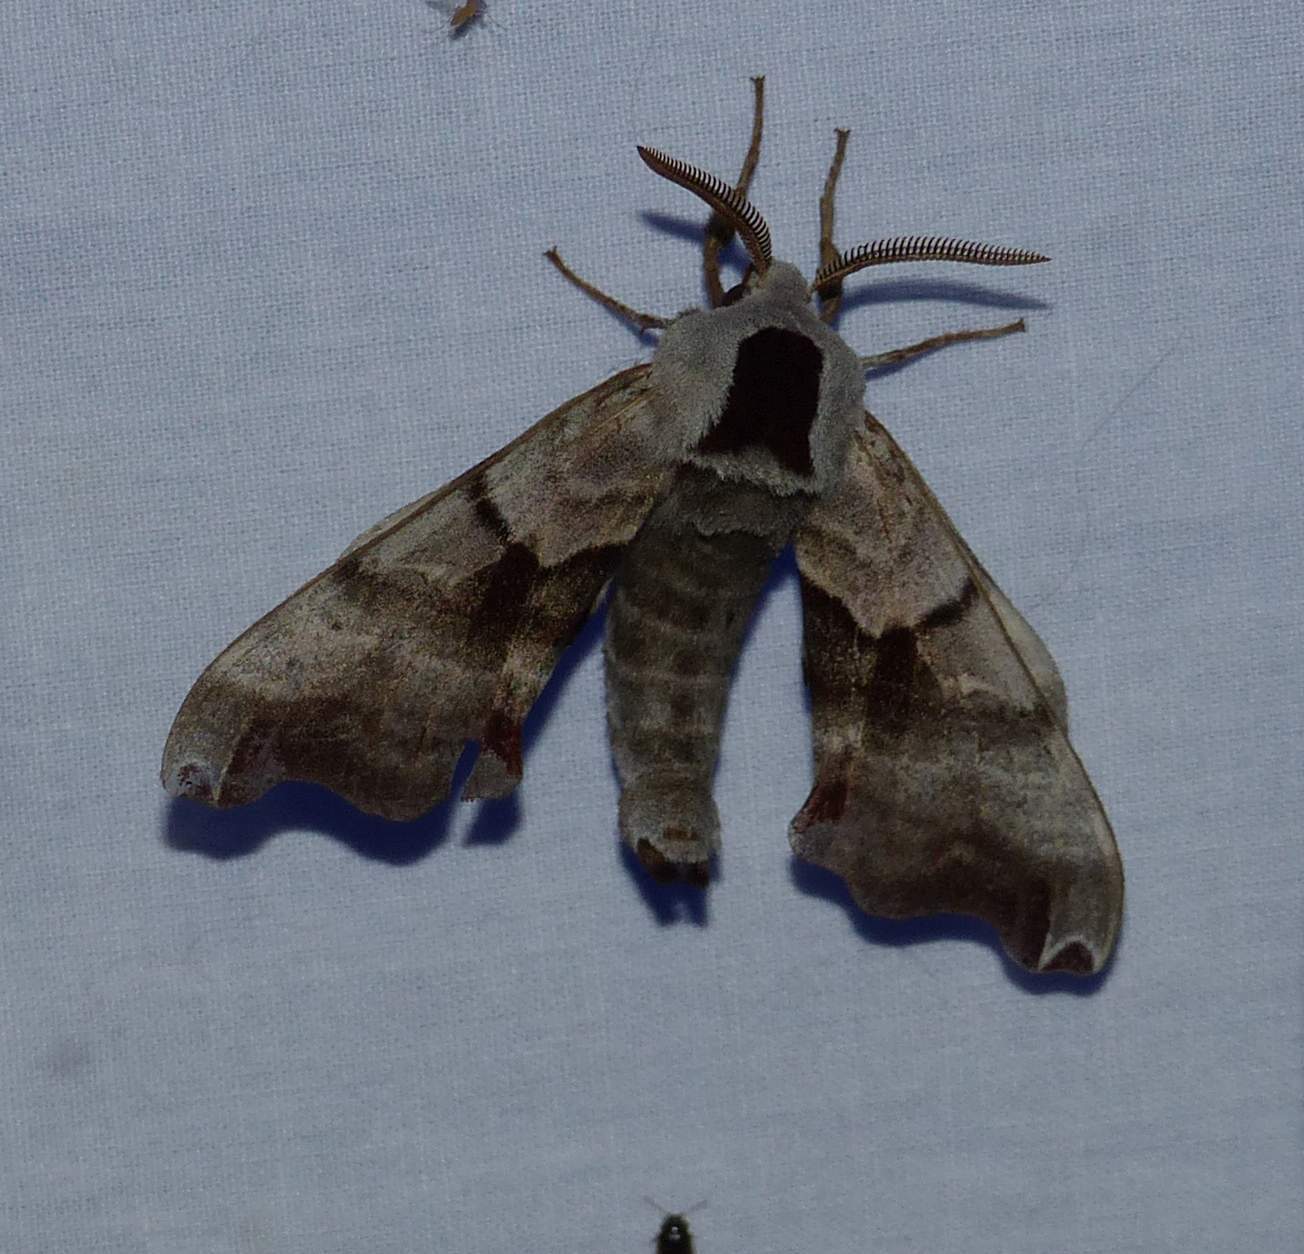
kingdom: Animalia
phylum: Arthropoda
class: Insecta
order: Lepidoptera
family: Sphingidae
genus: Smerinthus
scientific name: Smerinthus jamaicensis
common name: Twin spotted sphinx
